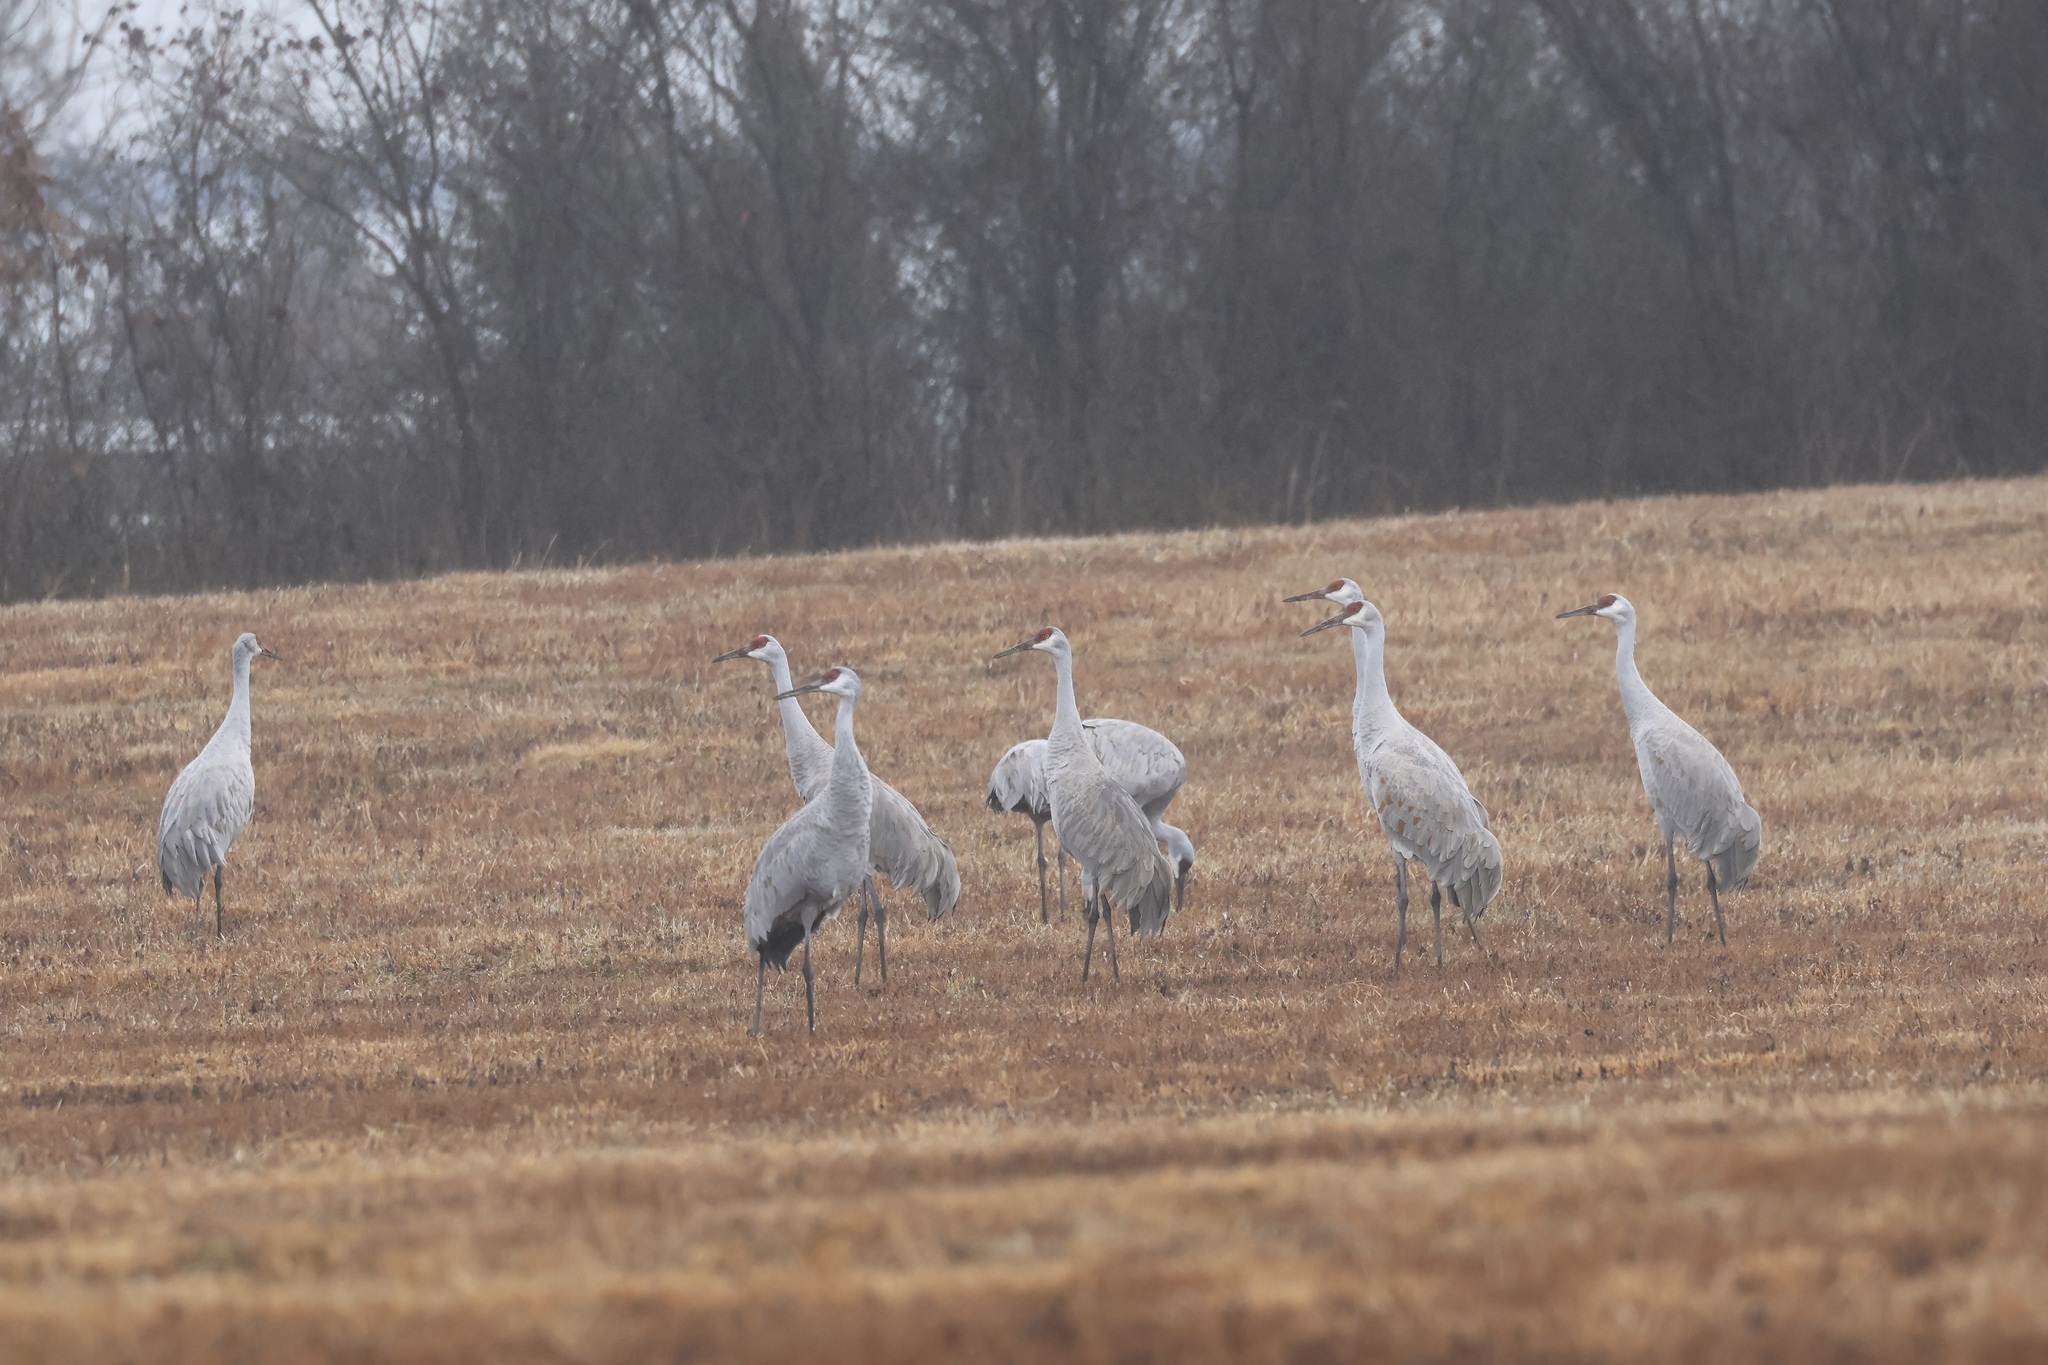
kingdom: Animalia
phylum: Chordata
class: Aves
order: Gruiformes
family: Gruidae
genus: Grus
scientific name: Grus canadensis
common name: Sandhill crane
